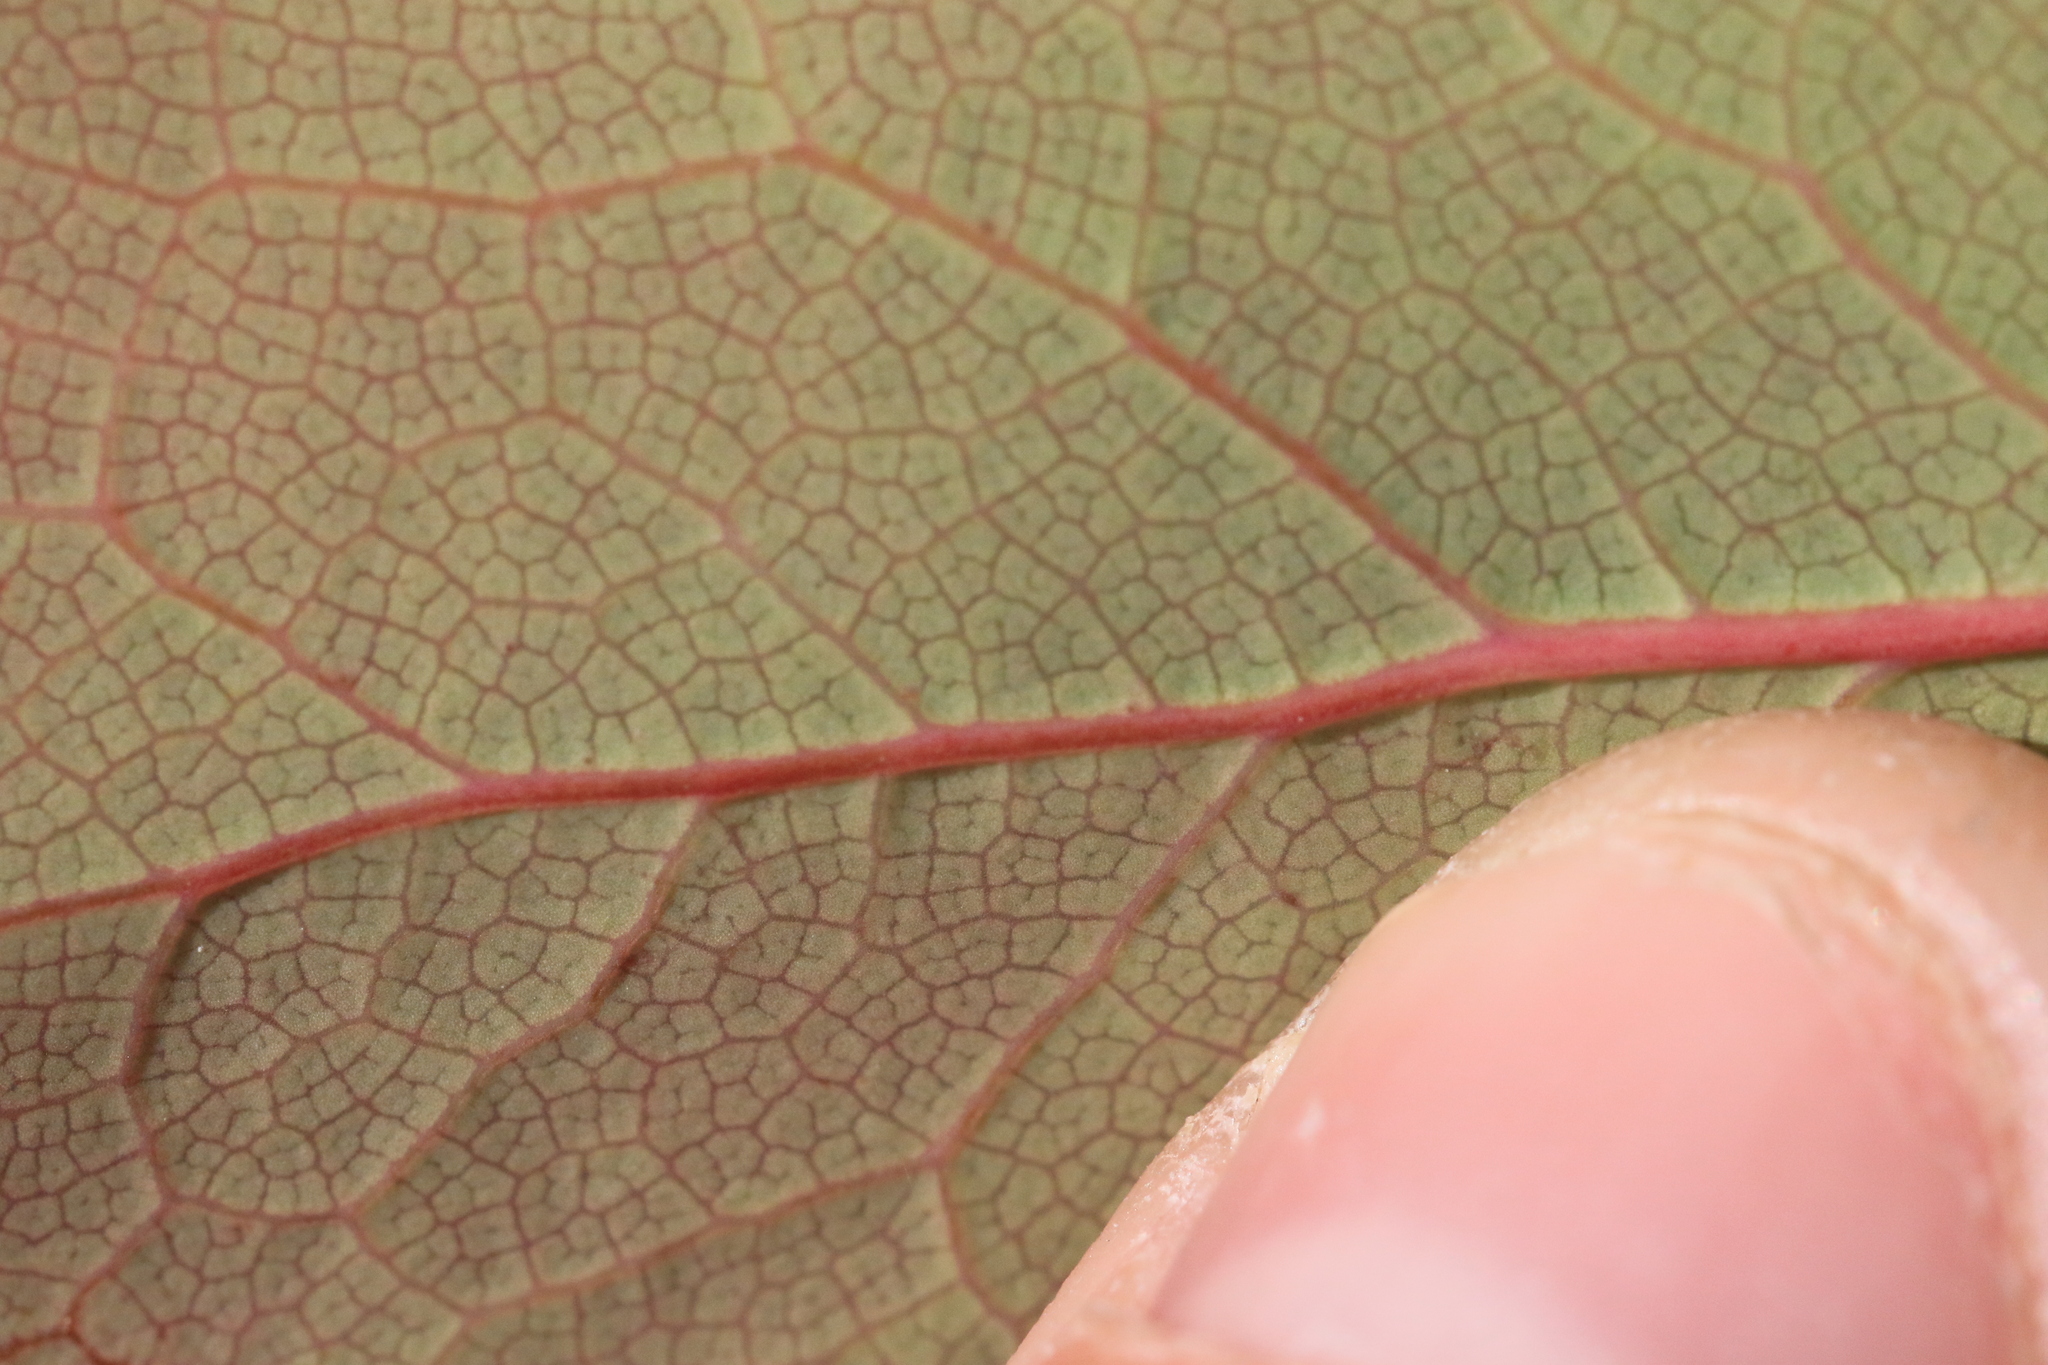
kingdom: Plantae
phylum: Tracheophyta
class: Magnoliopsida
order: Ranunculales
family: Berberidaceae
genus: Mahonia
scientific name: Mahonia aquifolium
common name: Oregon-grape
